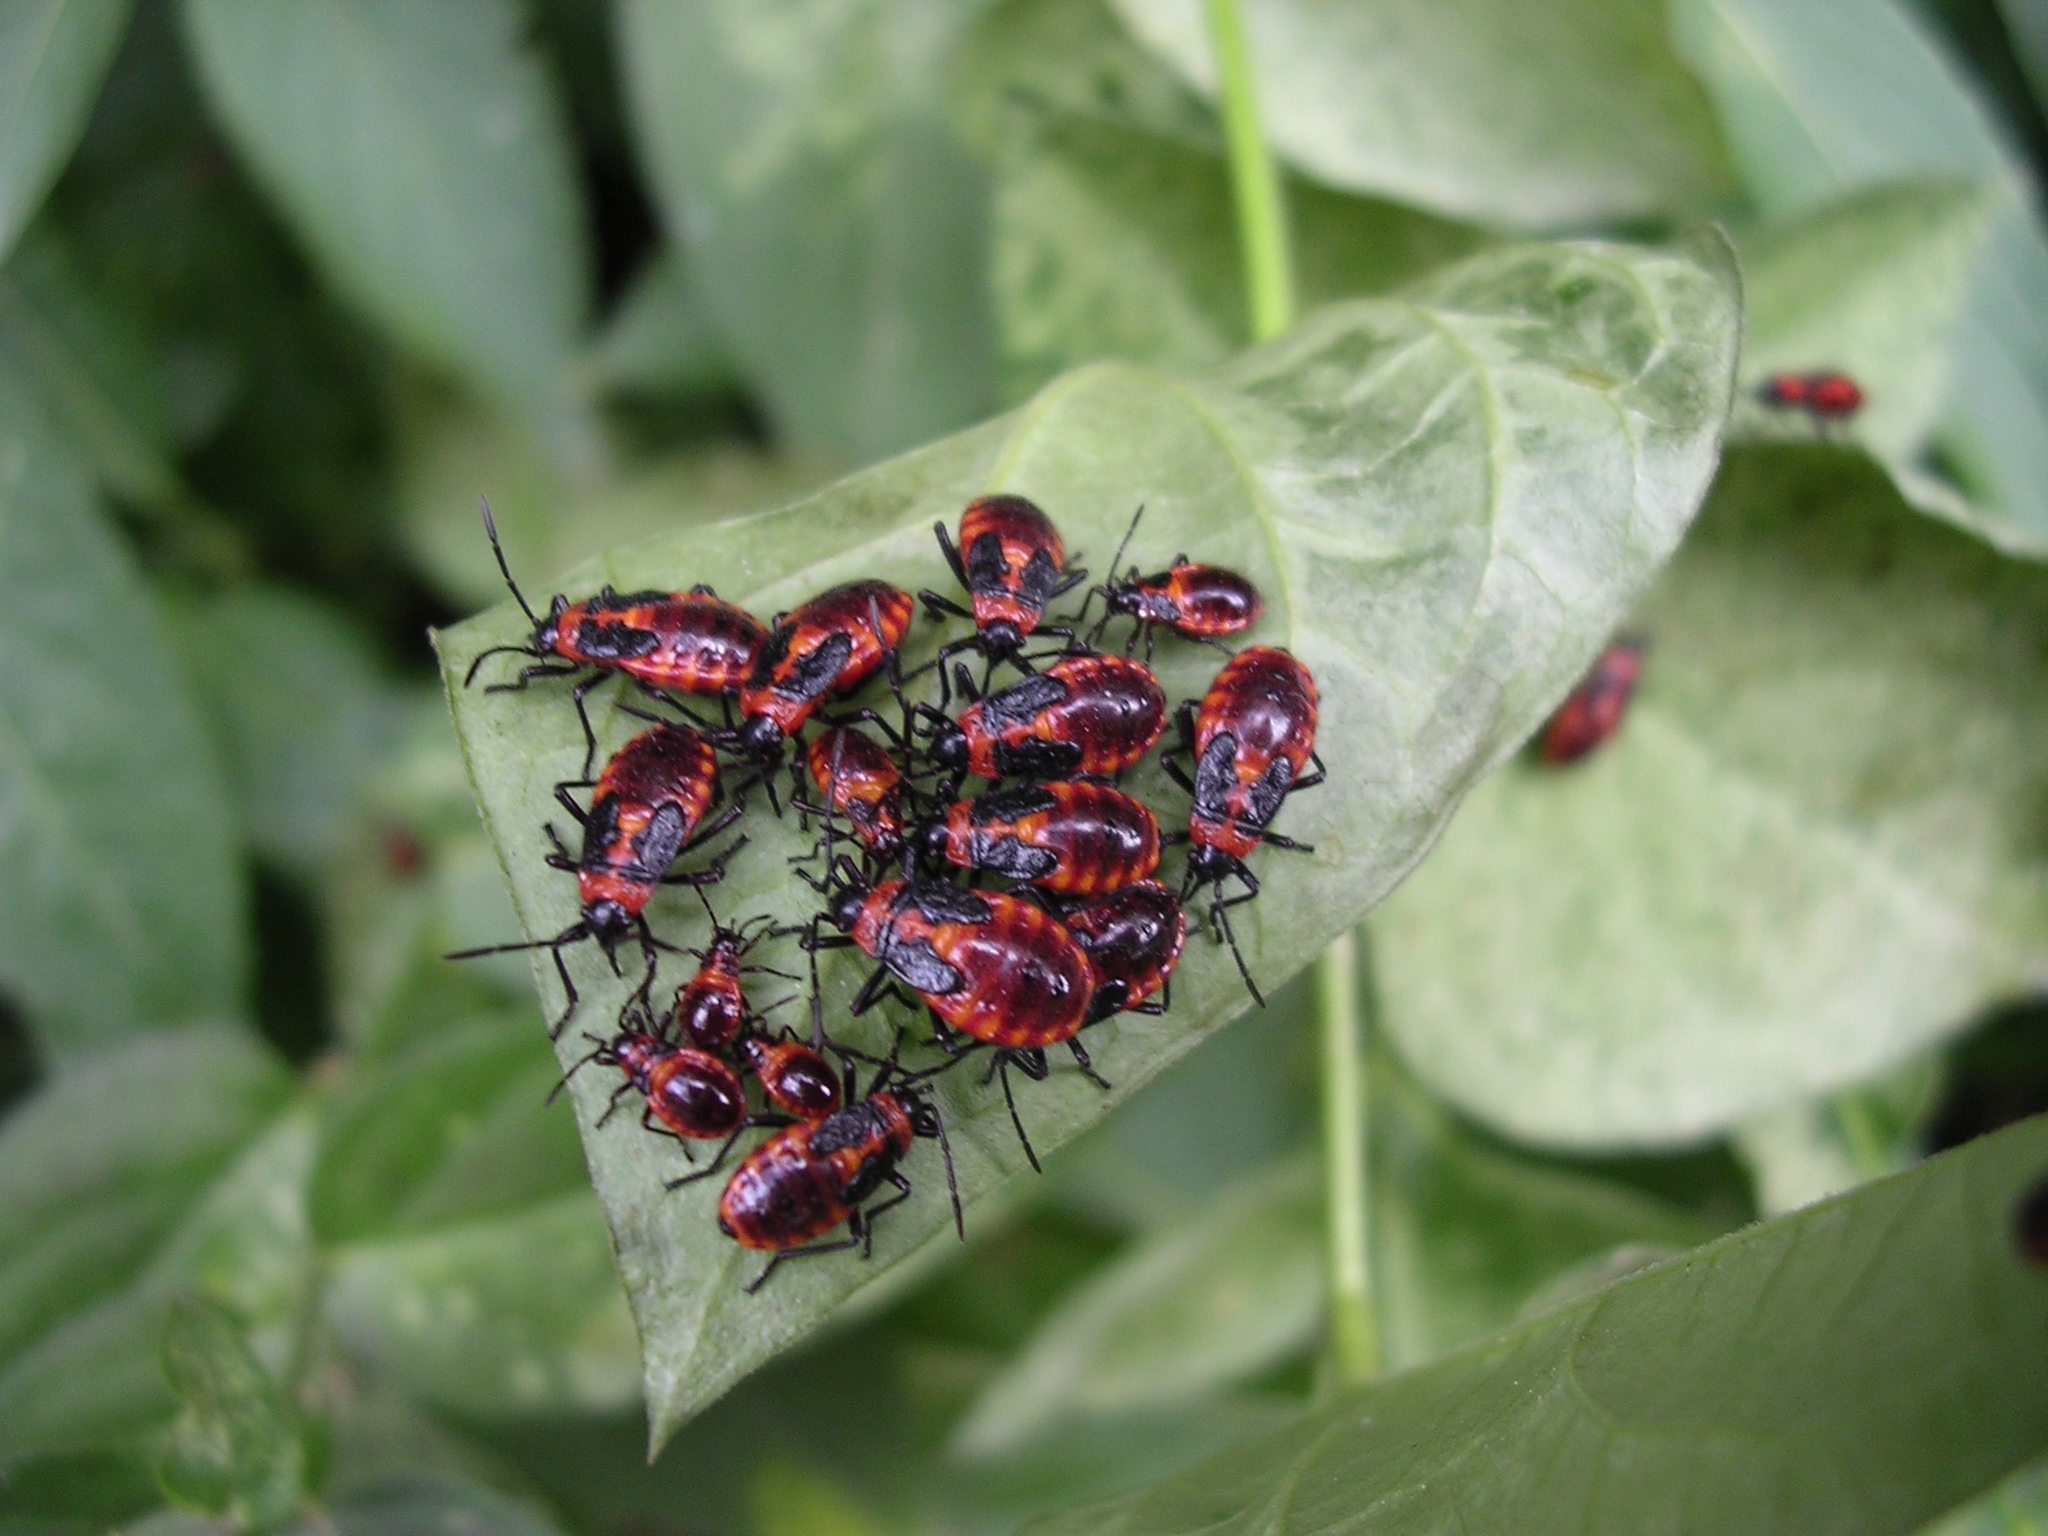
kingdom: Animalia
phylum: Arthropoda
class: Insecta
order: Hemiptera
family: Lygaeidae
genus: Tropidothorax
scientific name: Tropidothorax leucopterus
